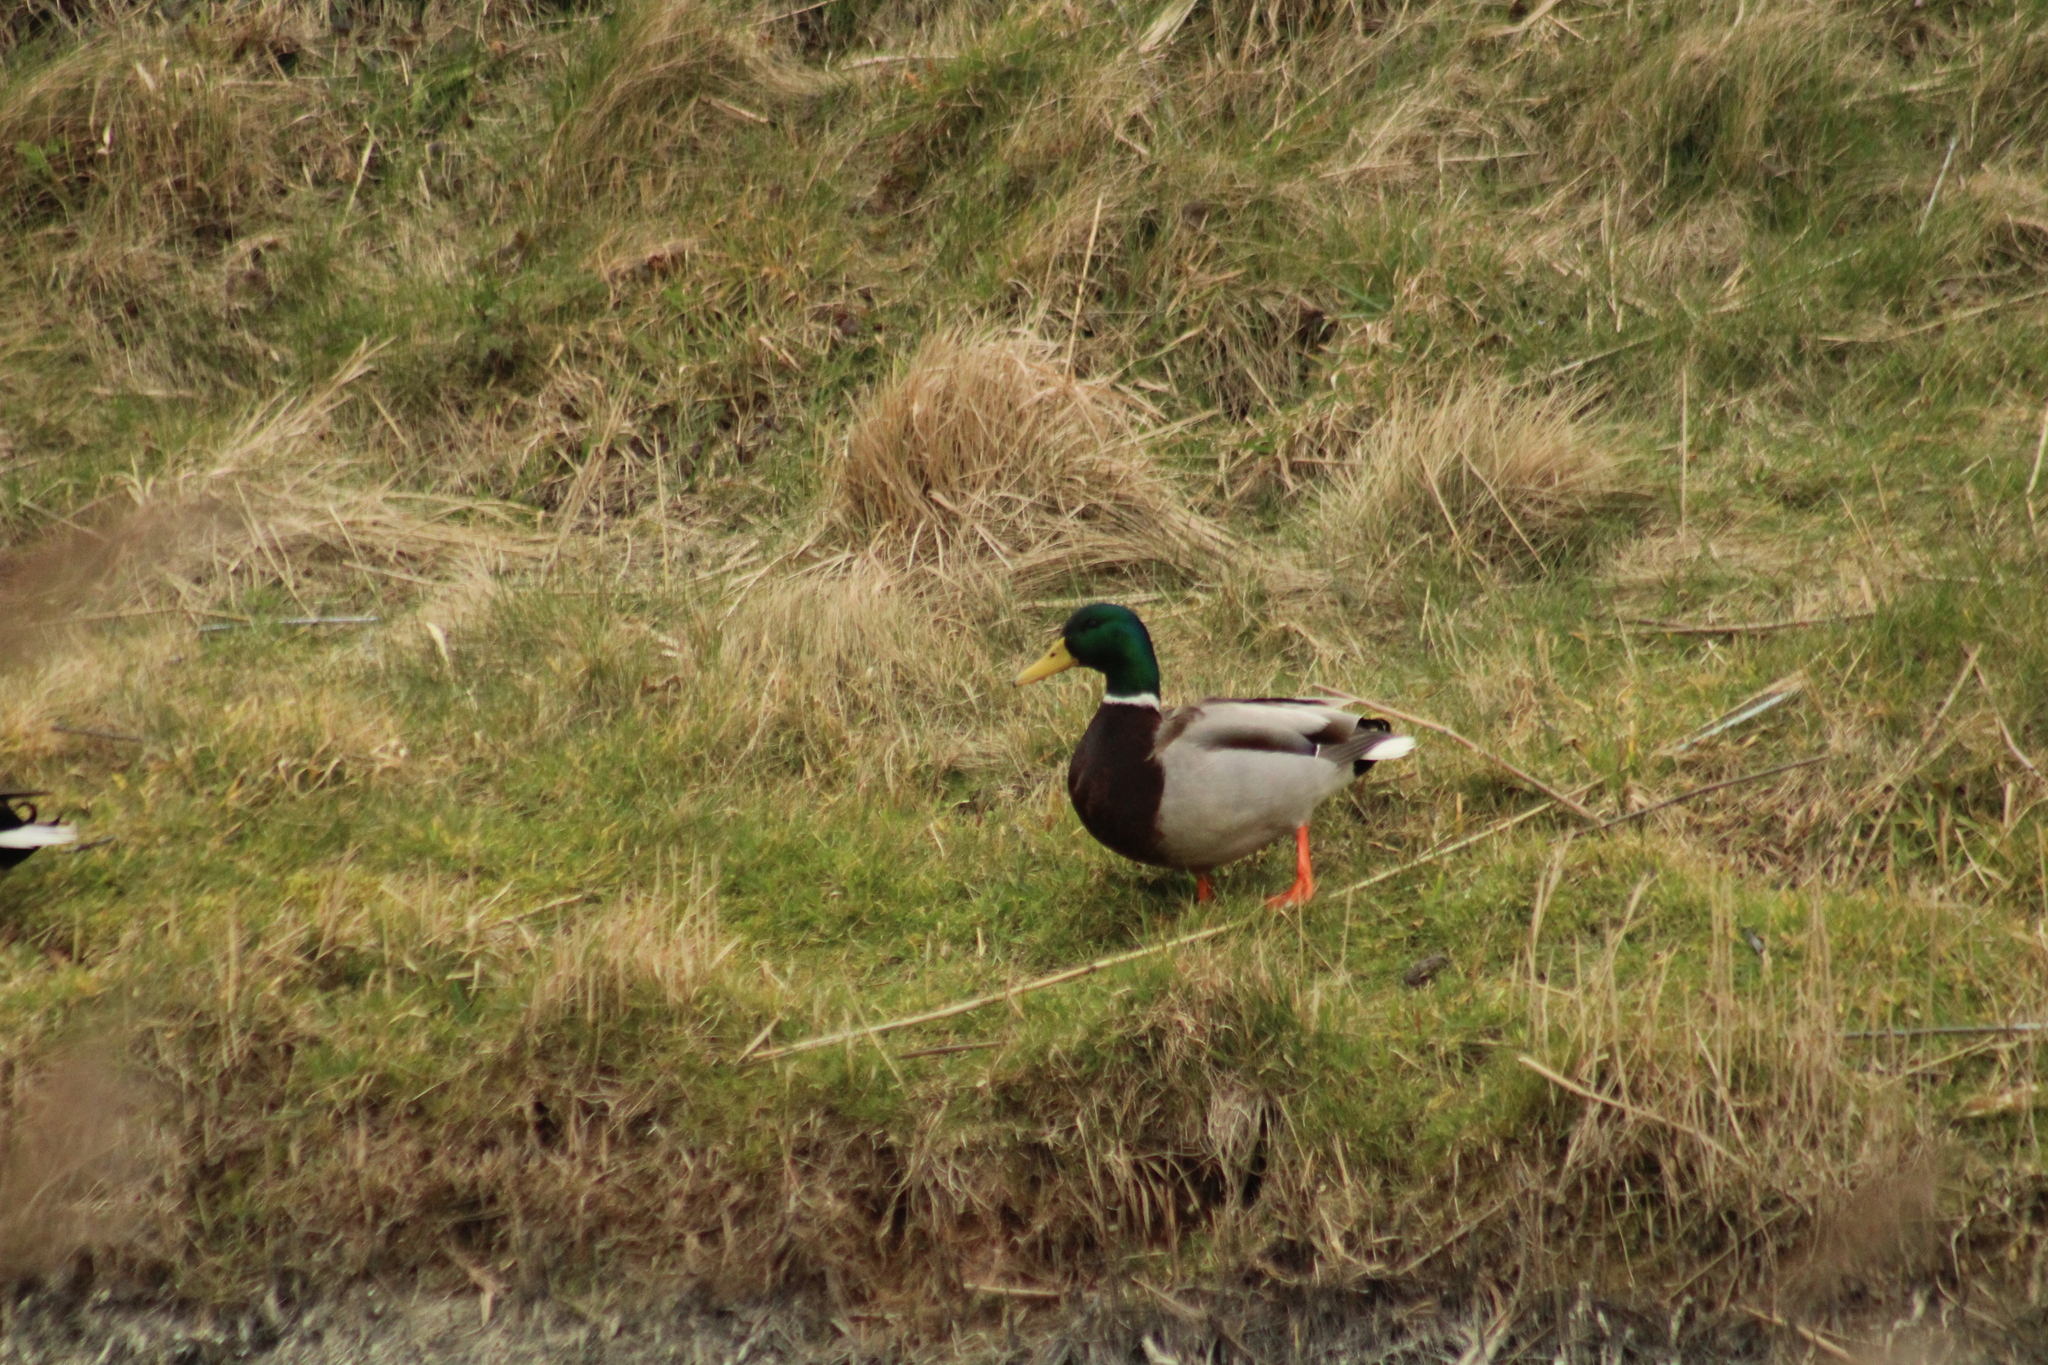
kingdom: Animalia
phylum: Chordata
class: Aves
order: Anseriformes
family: Anatidae
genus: Anas
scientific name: Anas platyrhynchos
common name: Mallard
